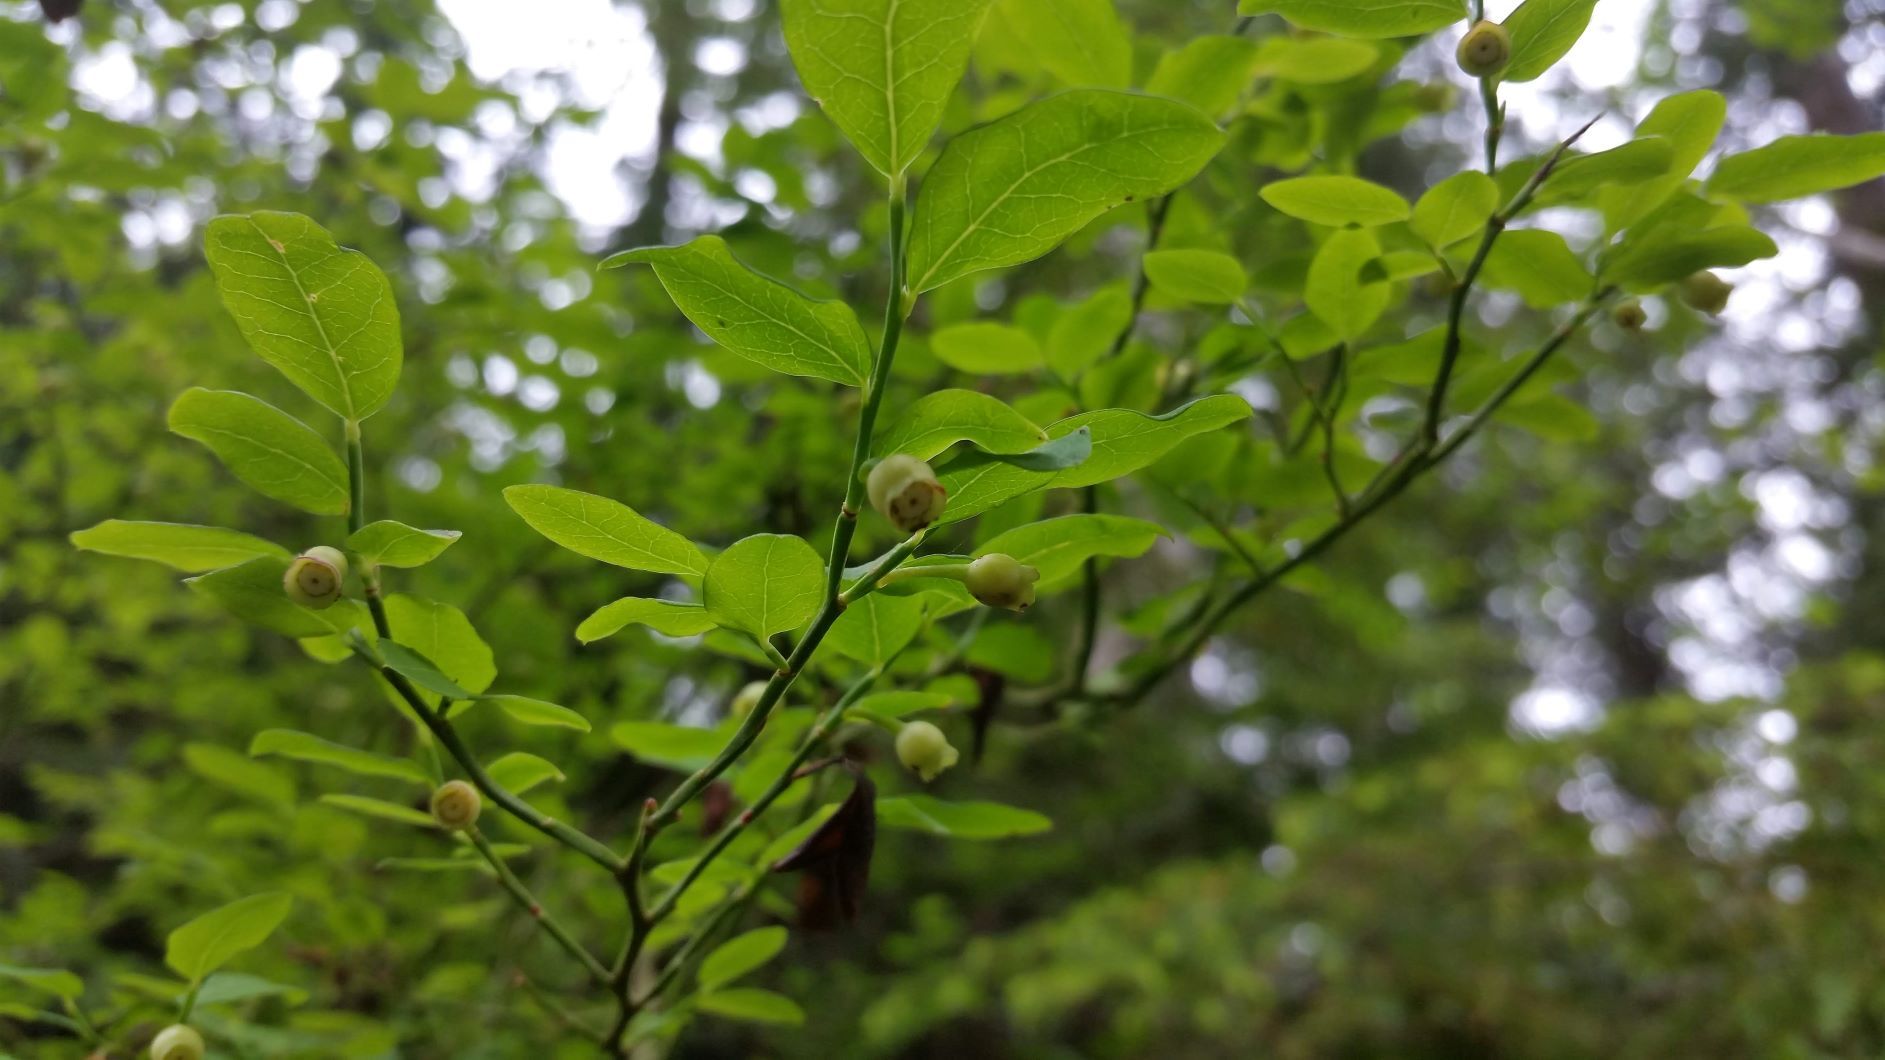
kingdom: Plantae
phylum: Tracheophyta
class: Magnoliopsida
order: Ericales
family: Ericaceae
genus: Vaccinium
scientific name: Vaccinium parvifolium
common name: Red-huckleberry
